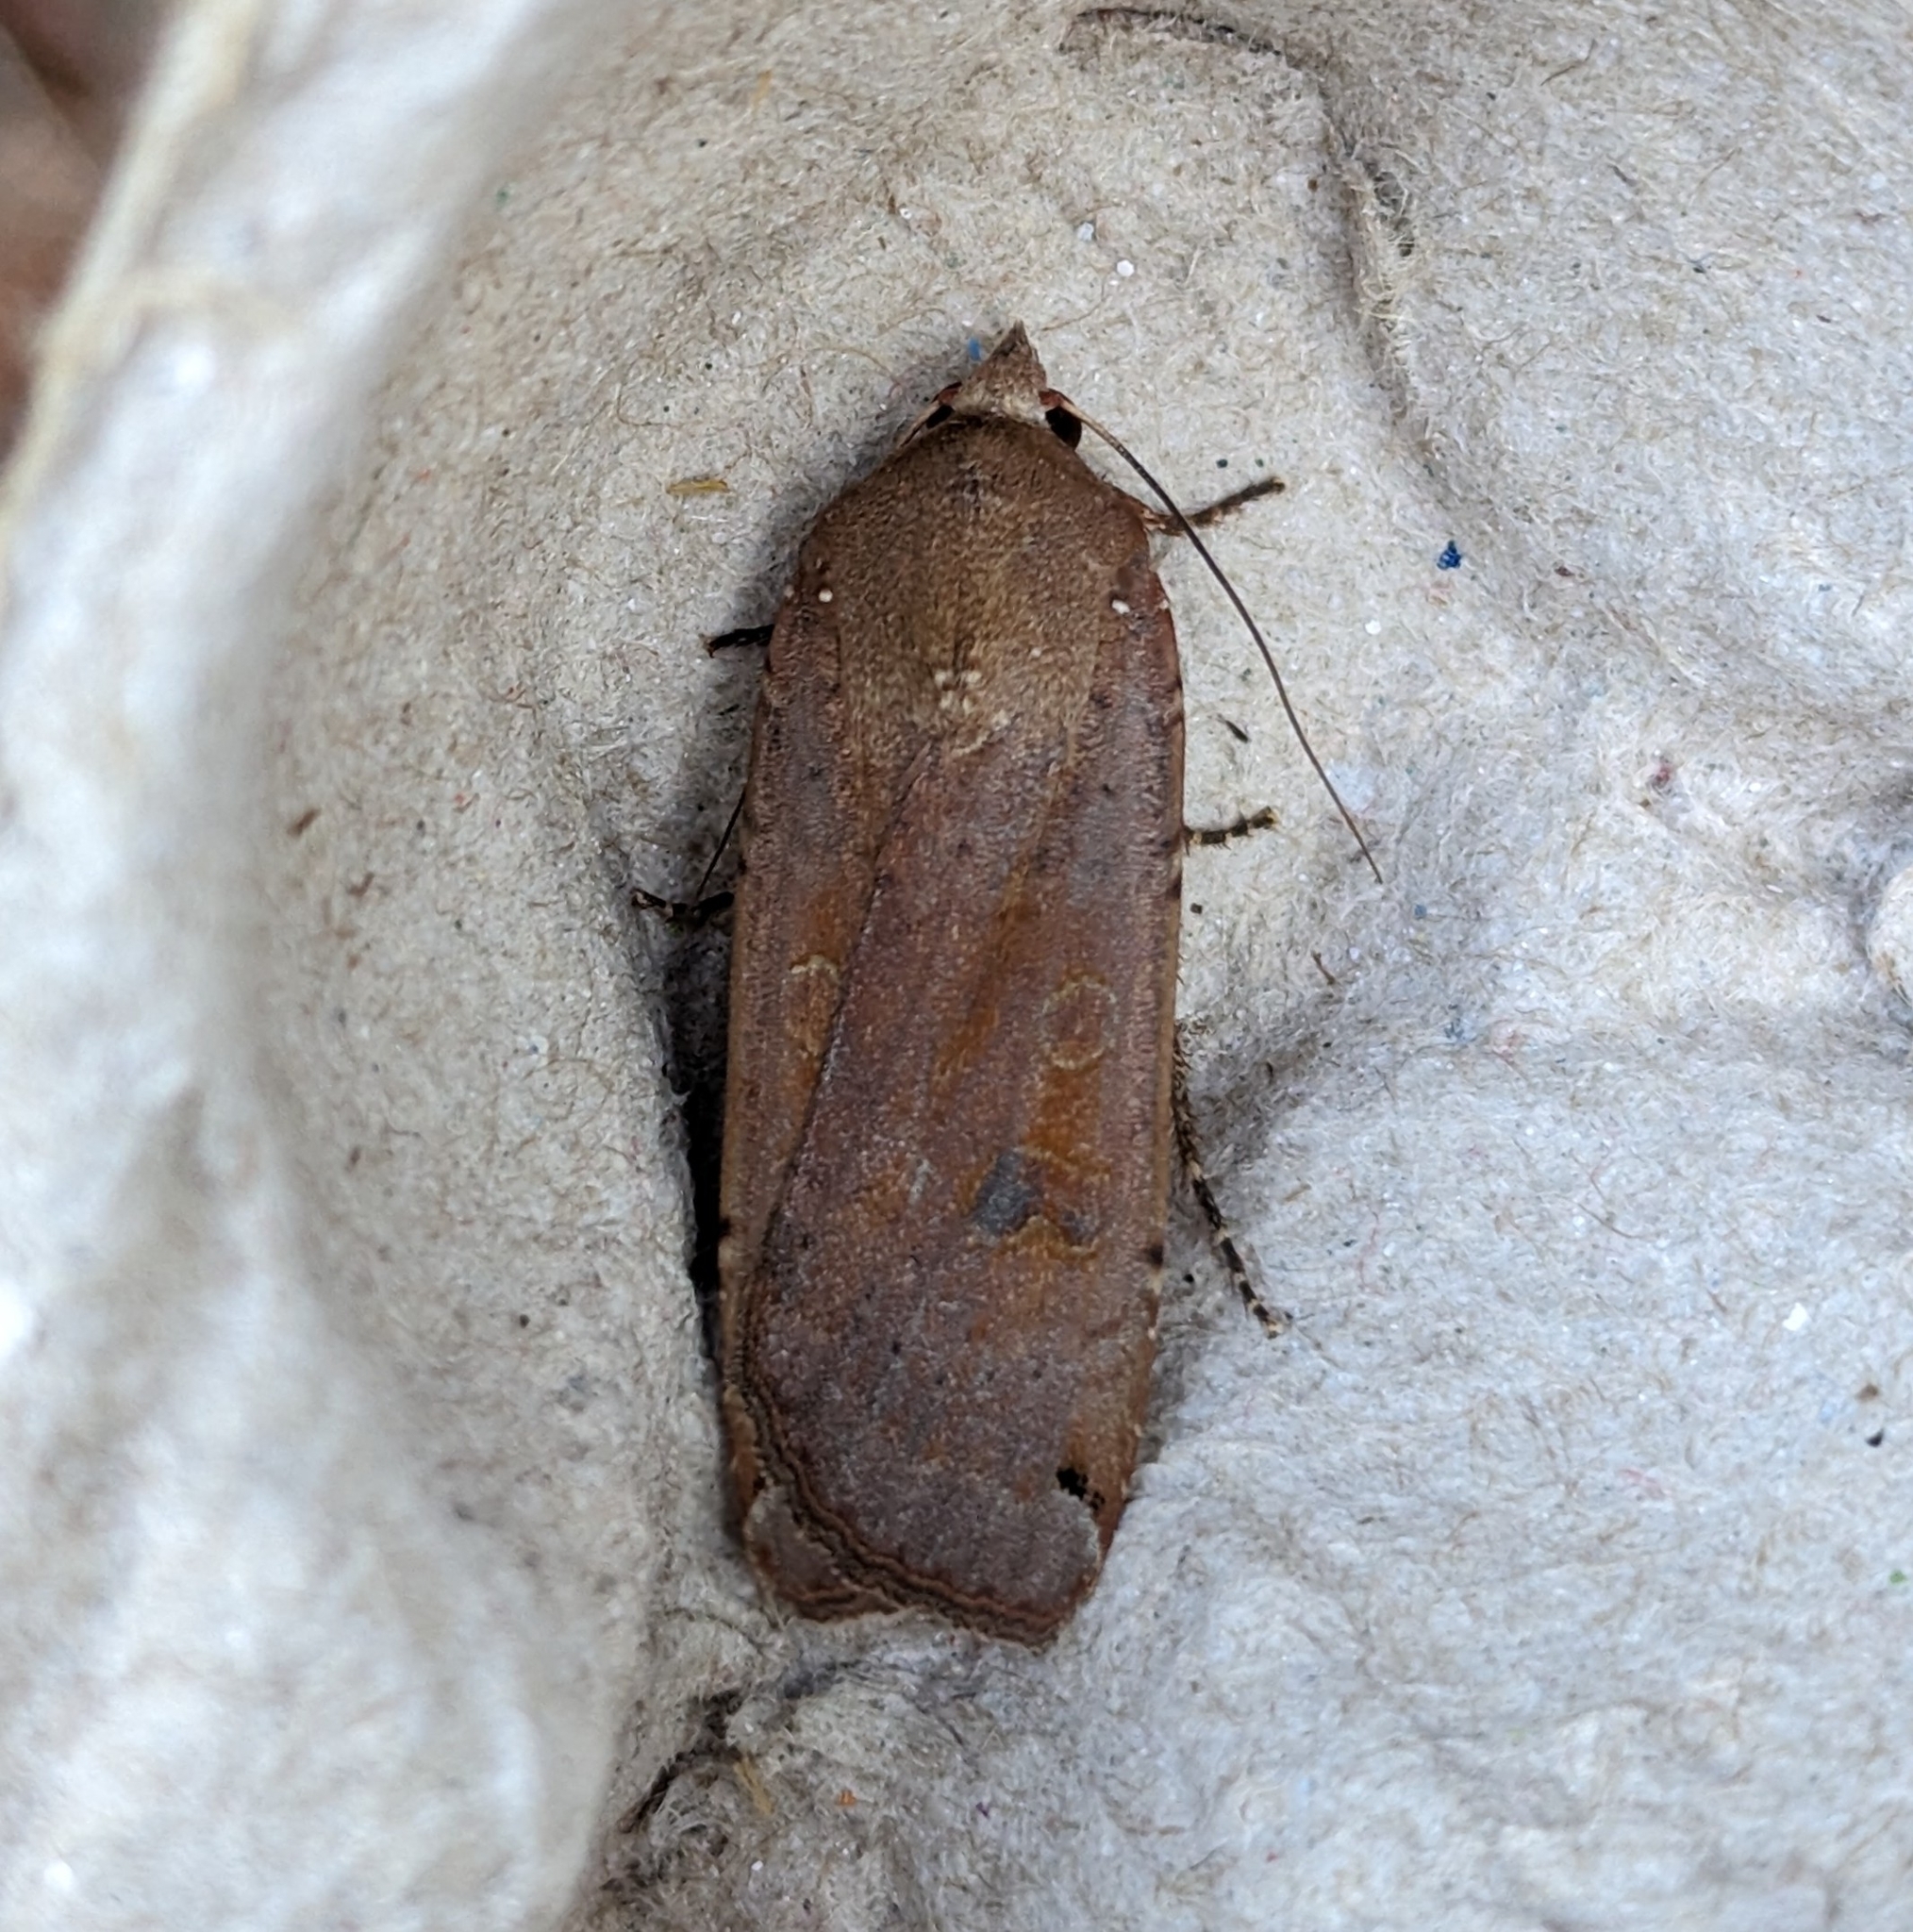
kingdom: Animalia
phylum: Arthropoda
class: Insecta
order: Lepidoptera
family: Noctuidae
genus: Noctua
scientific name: Noctua pronuba
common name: Large yellow underwing
